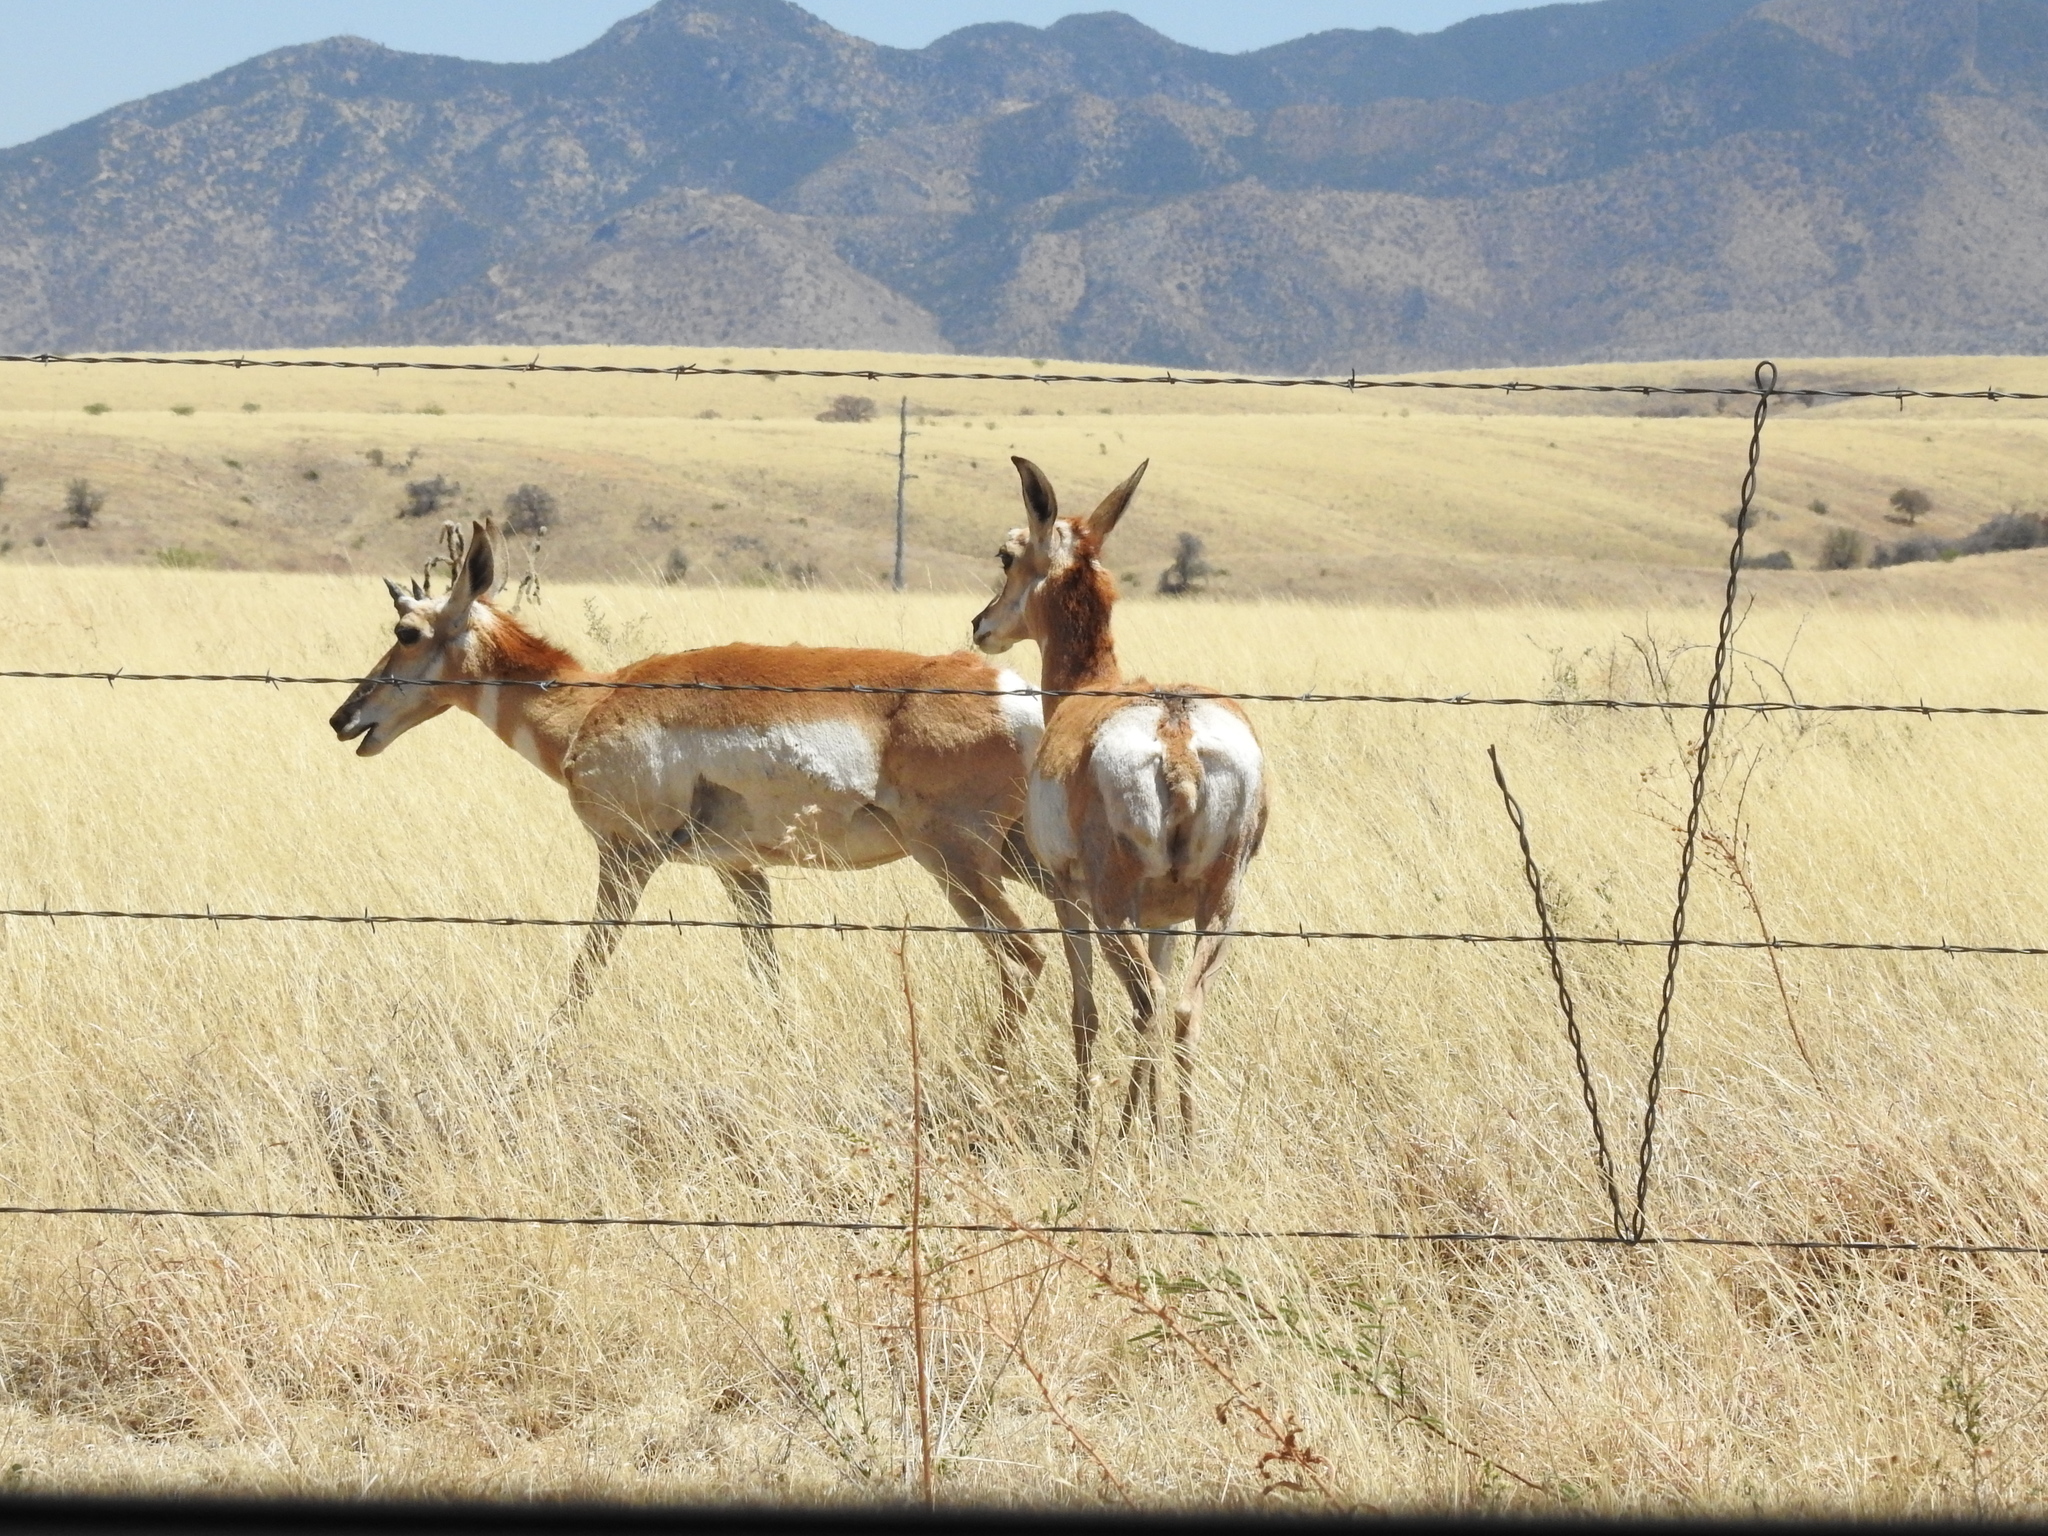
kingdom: Animalia
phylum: Chordata
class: Mammalia
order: Artiodactyla
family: Antilocapridae
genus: Antilocapra
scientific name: Antilocapra americana
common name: Pronghorn
